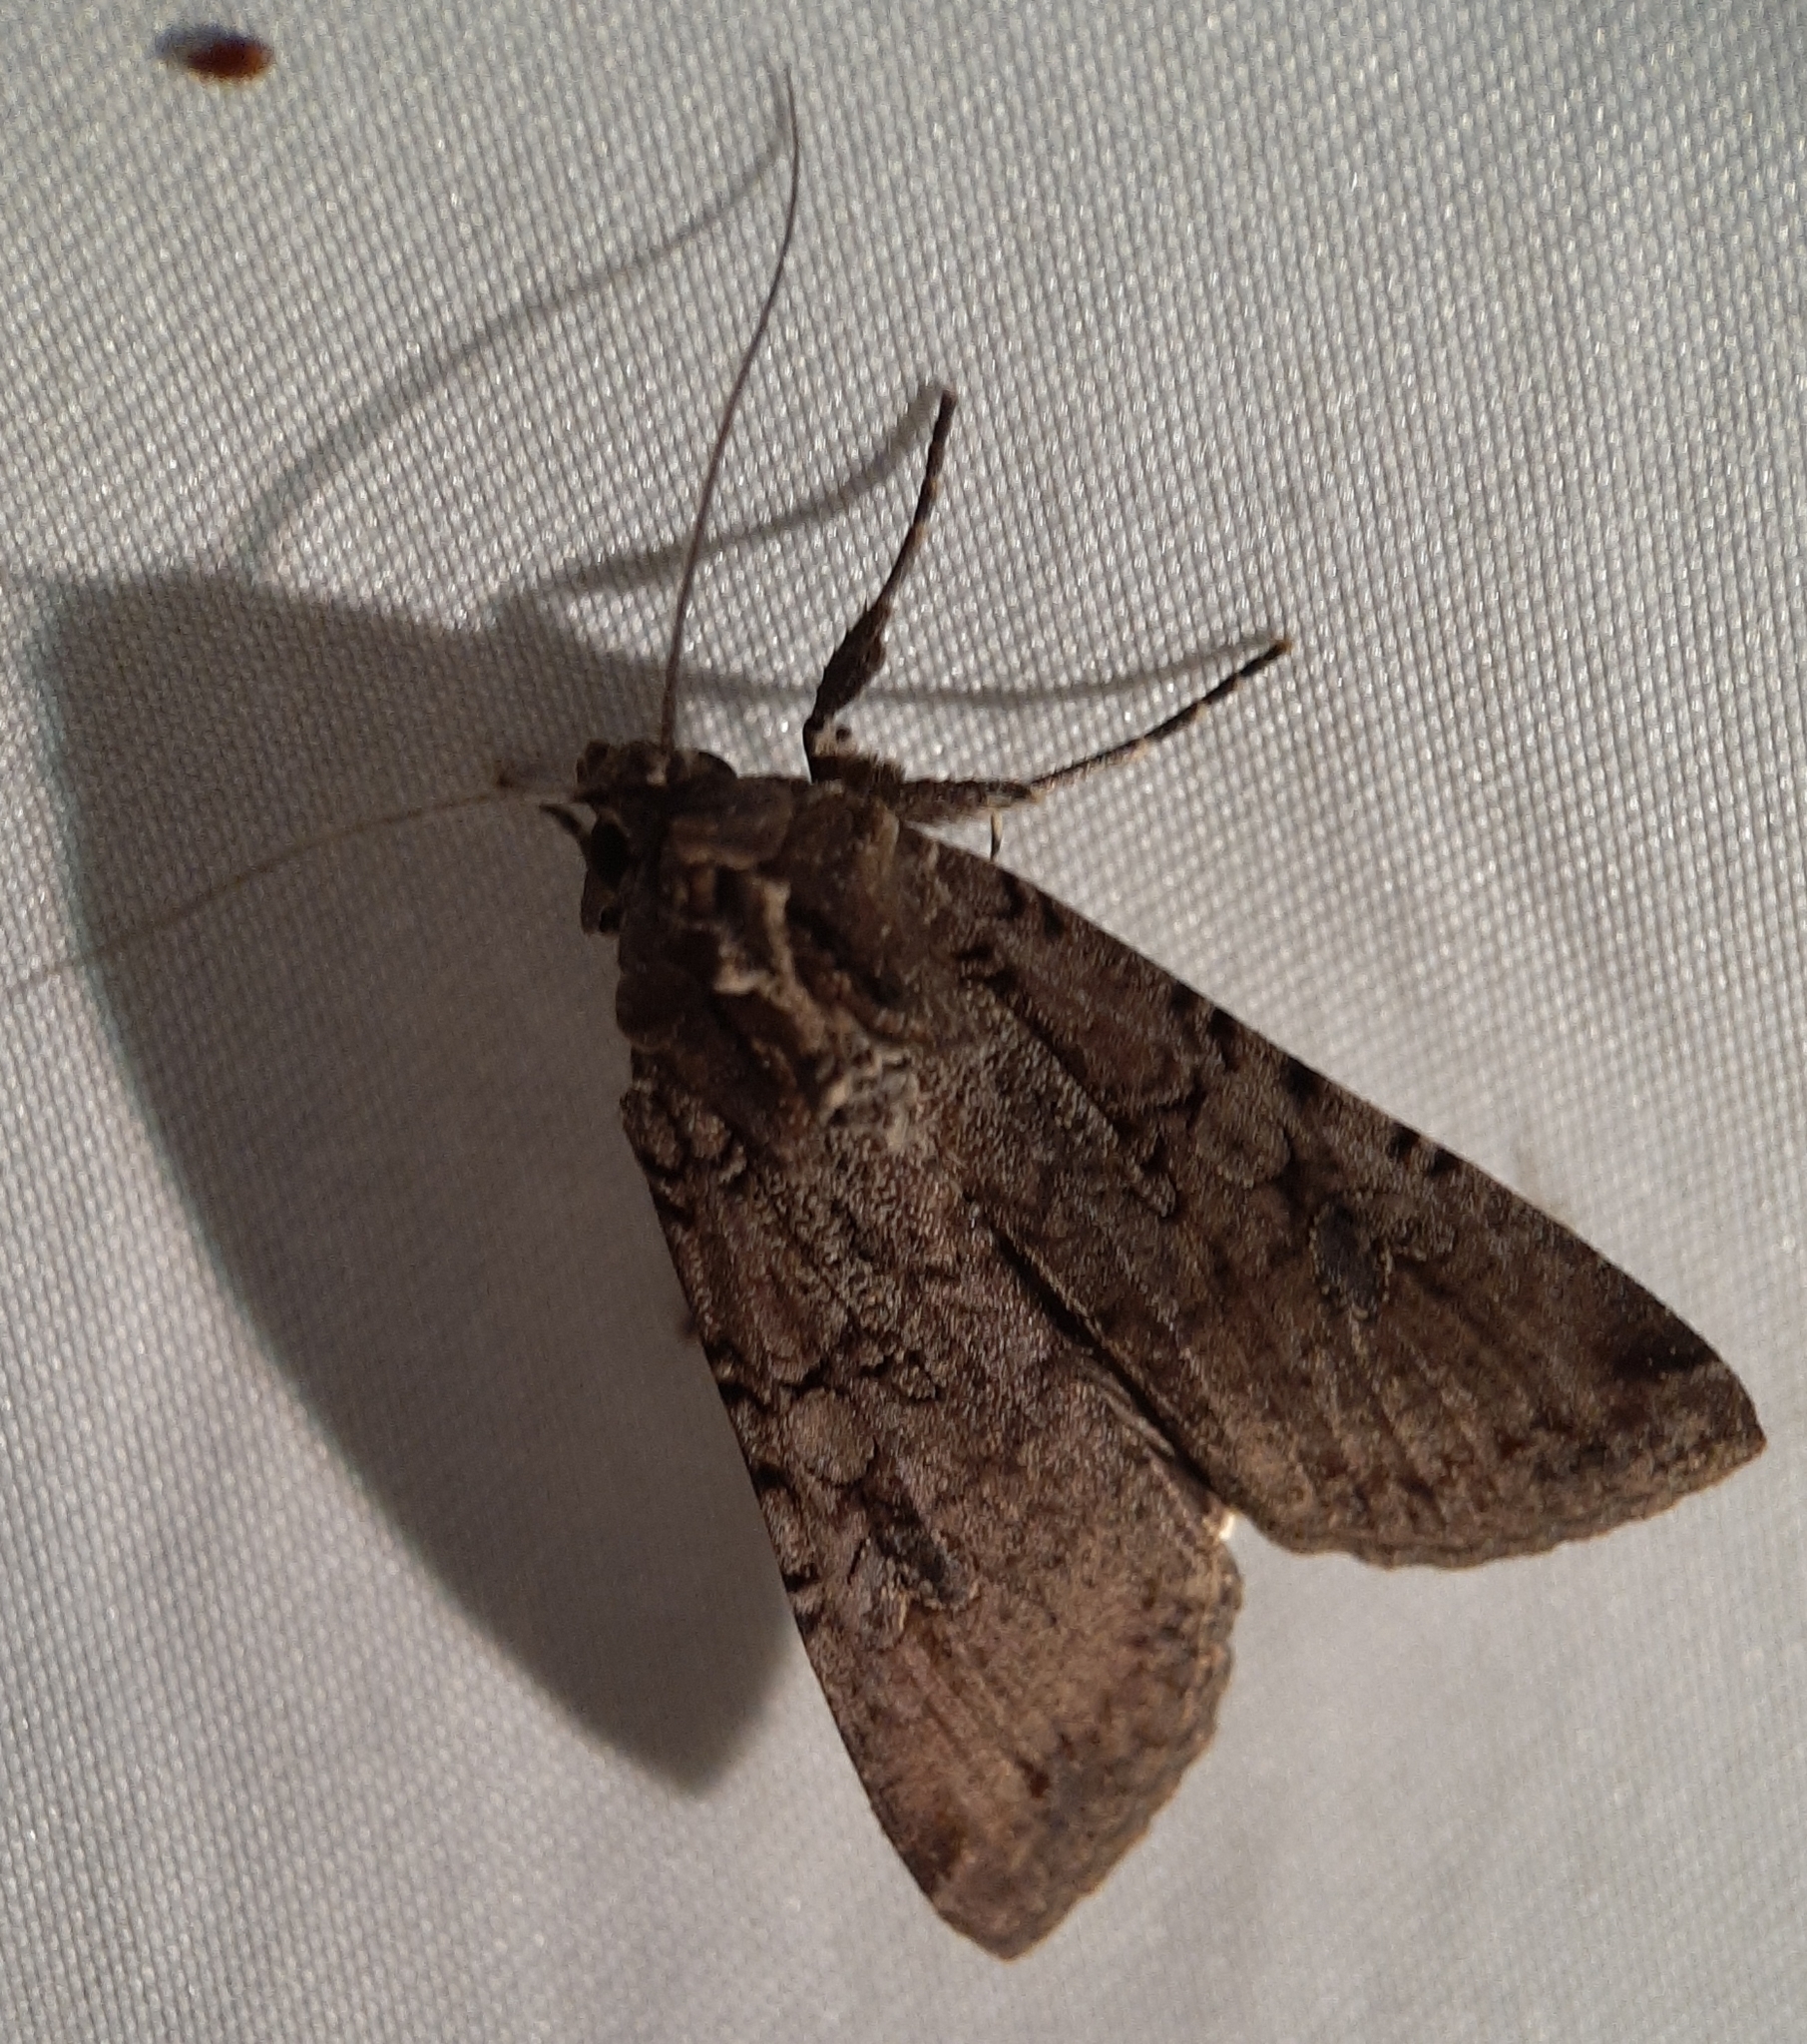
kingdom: Animalia
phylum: Arthropoda
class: Insecta
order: Lepidoptera
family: Noctuidae
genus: Peridroma
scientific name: Peridroma saucia
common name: Pearly underwing
